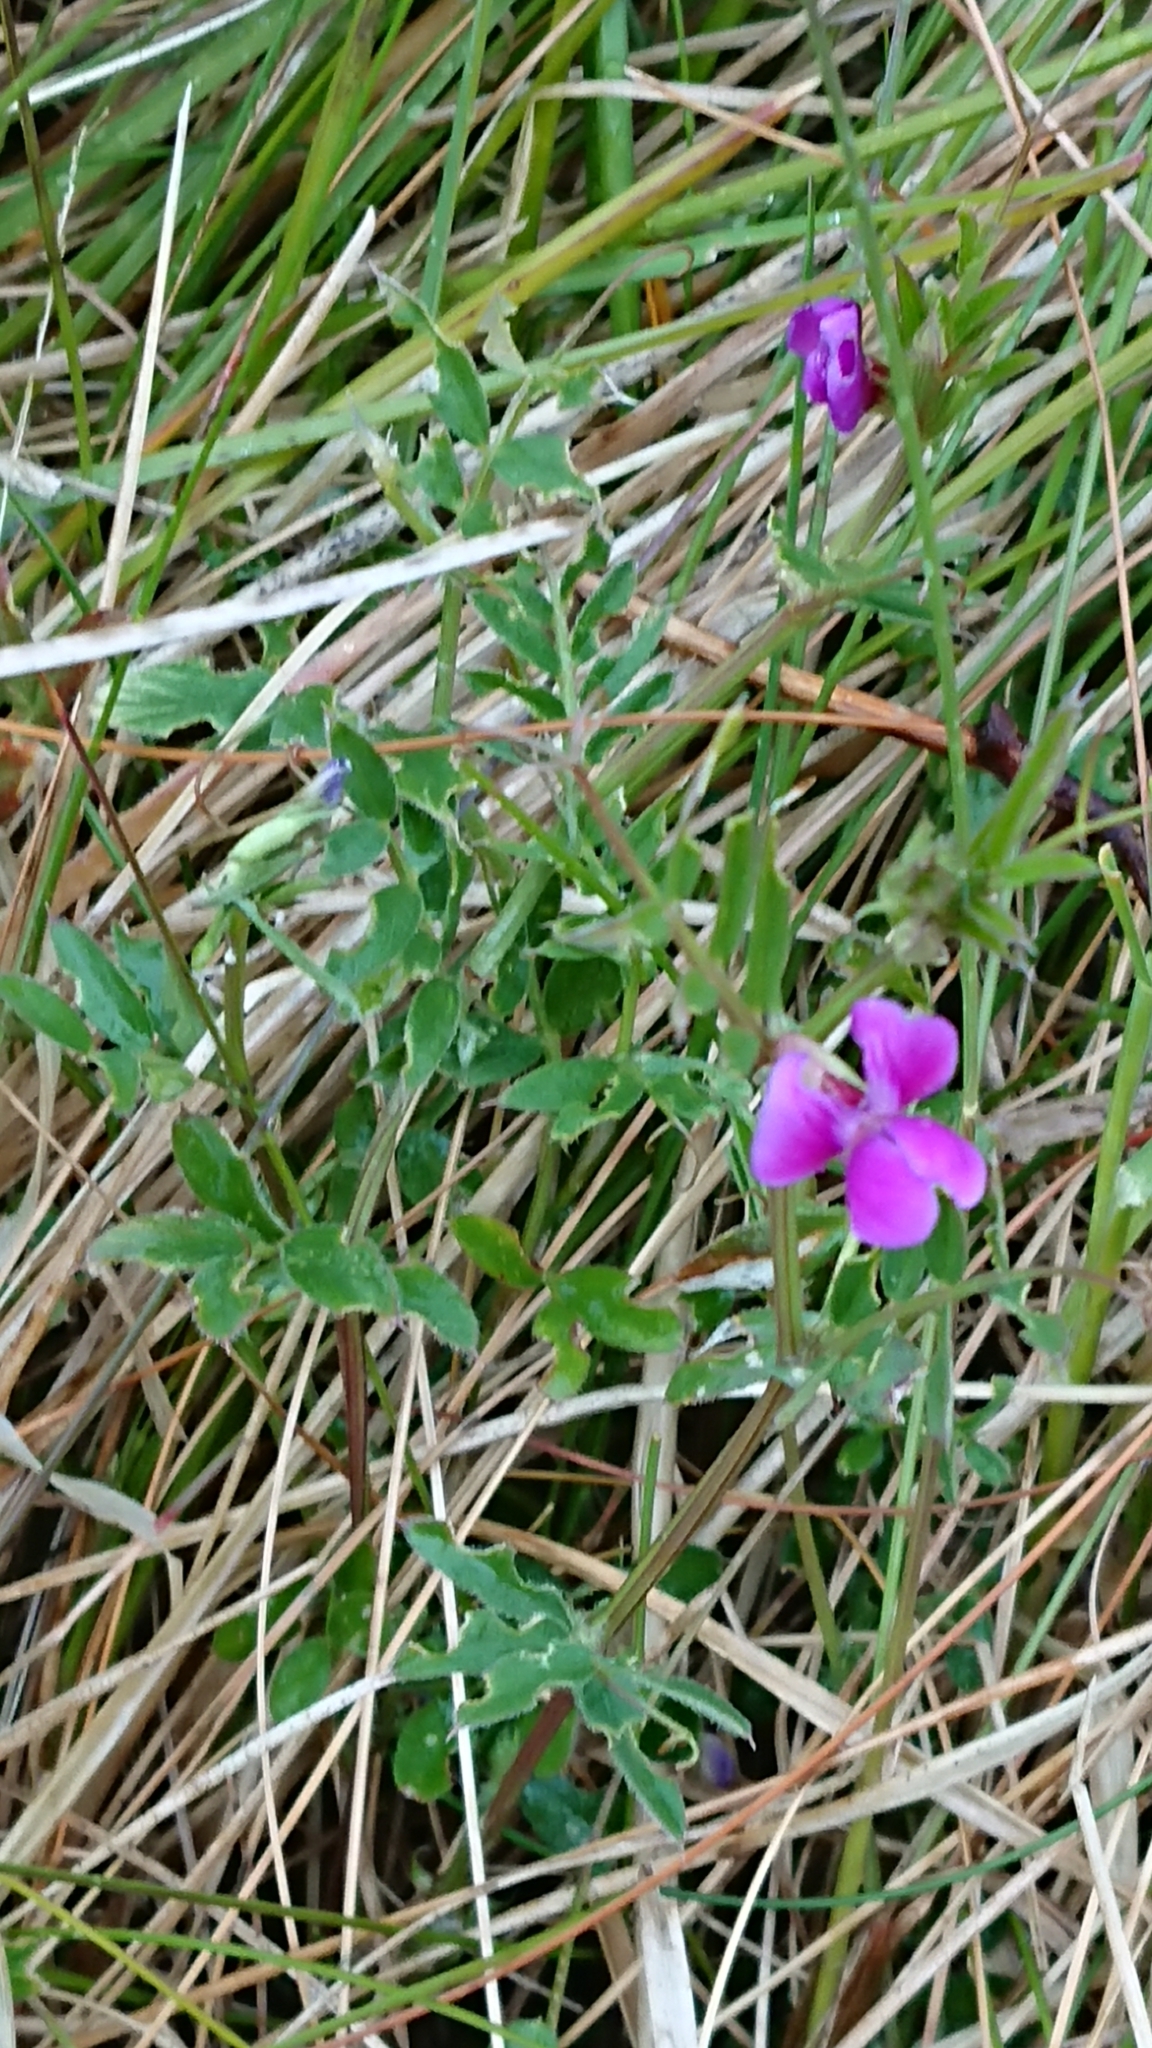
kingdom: Plantae
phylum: Tracheophyta
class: Magnoliopsida
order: Fabales
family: Fabaceae
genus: Vicia
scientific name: Vicia sativa
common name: Garden vetch
